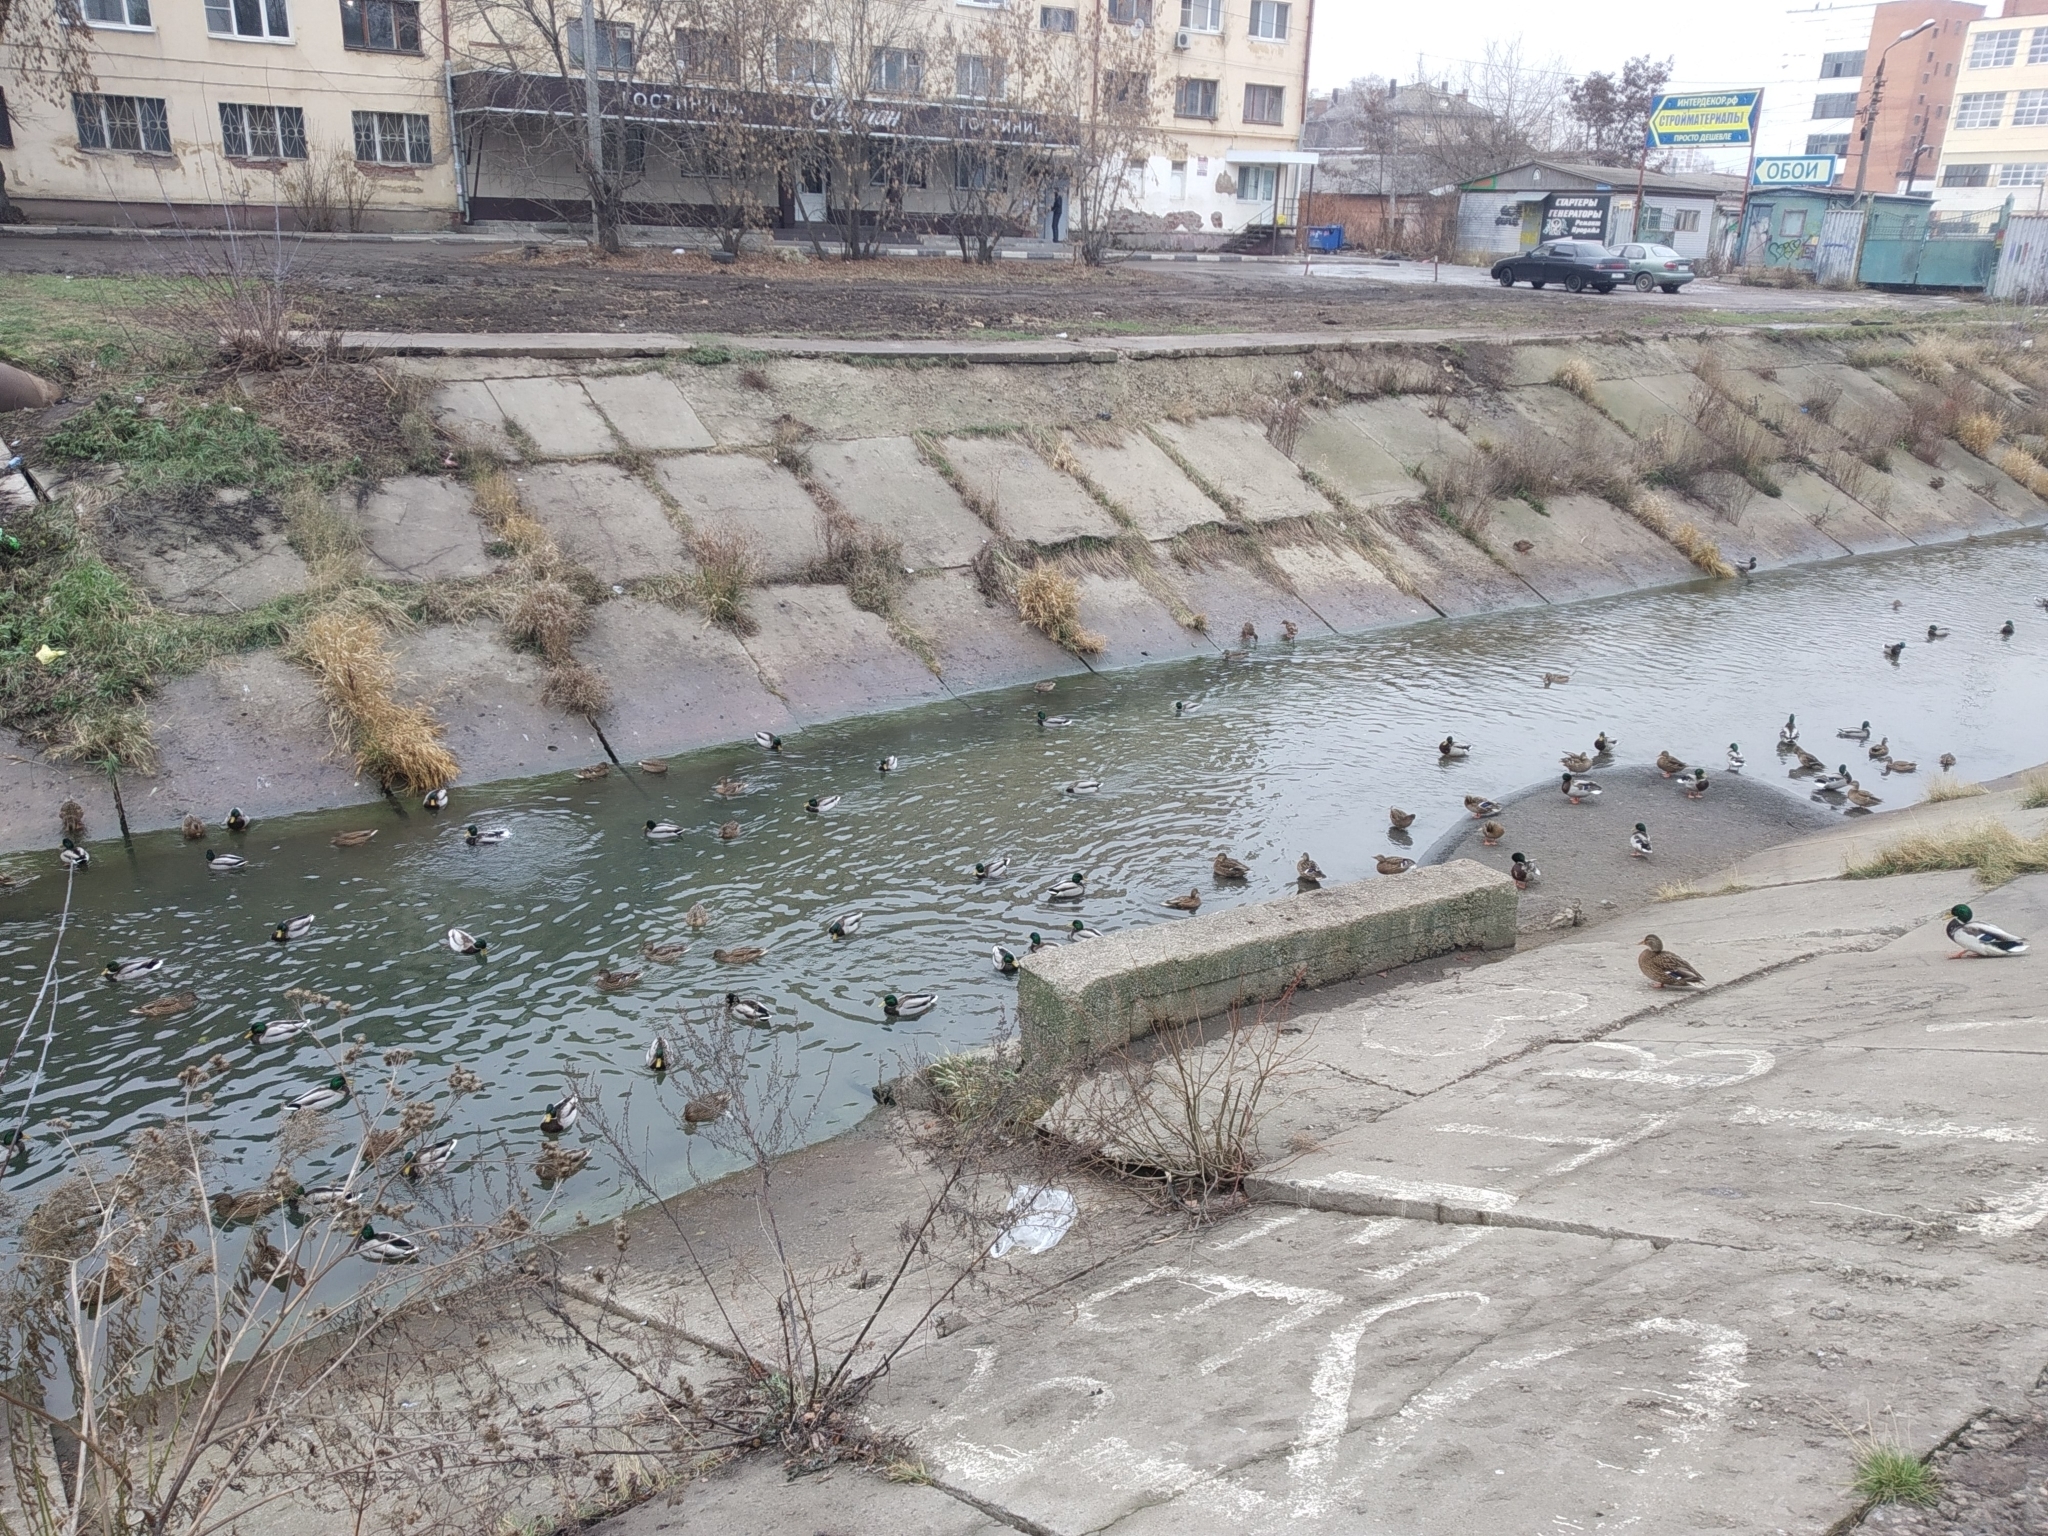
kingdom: Animalia
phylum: Chordata
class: Aves
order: Anseriformes
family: Anatidae
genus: Anas
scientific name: Anas platyrhynchos
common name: Mallard
